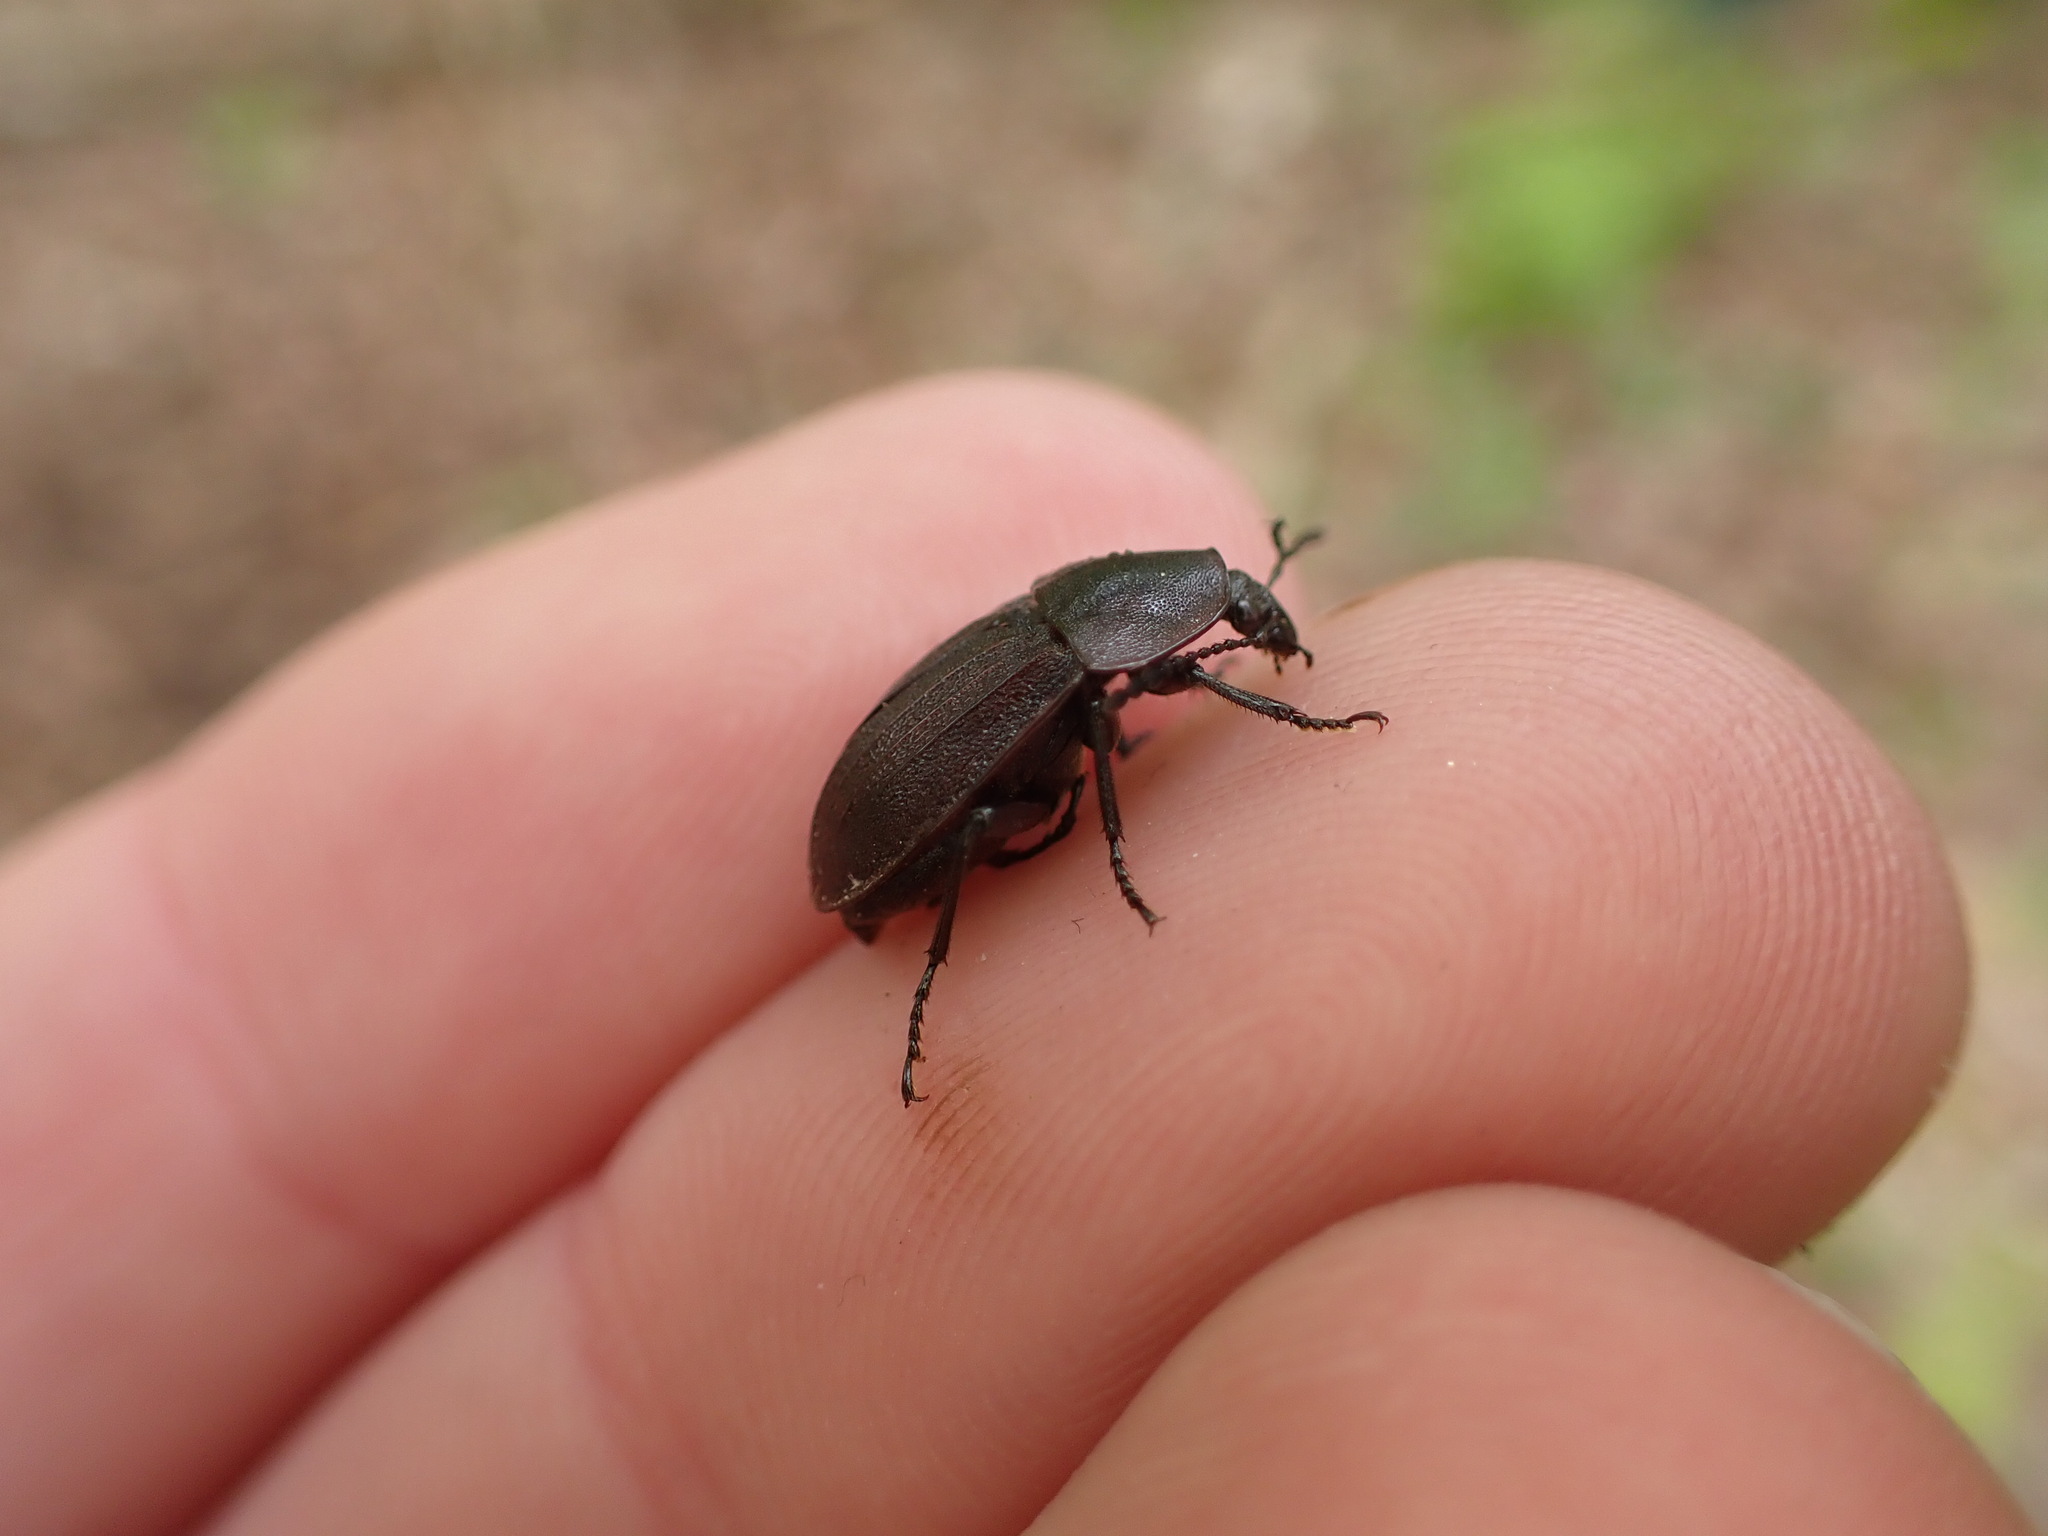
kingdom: Animalia
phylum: Arthropoda
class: Insecta
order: Coleoptera
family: Staphylinidae
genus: Silpha
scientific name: Silpha atrata
